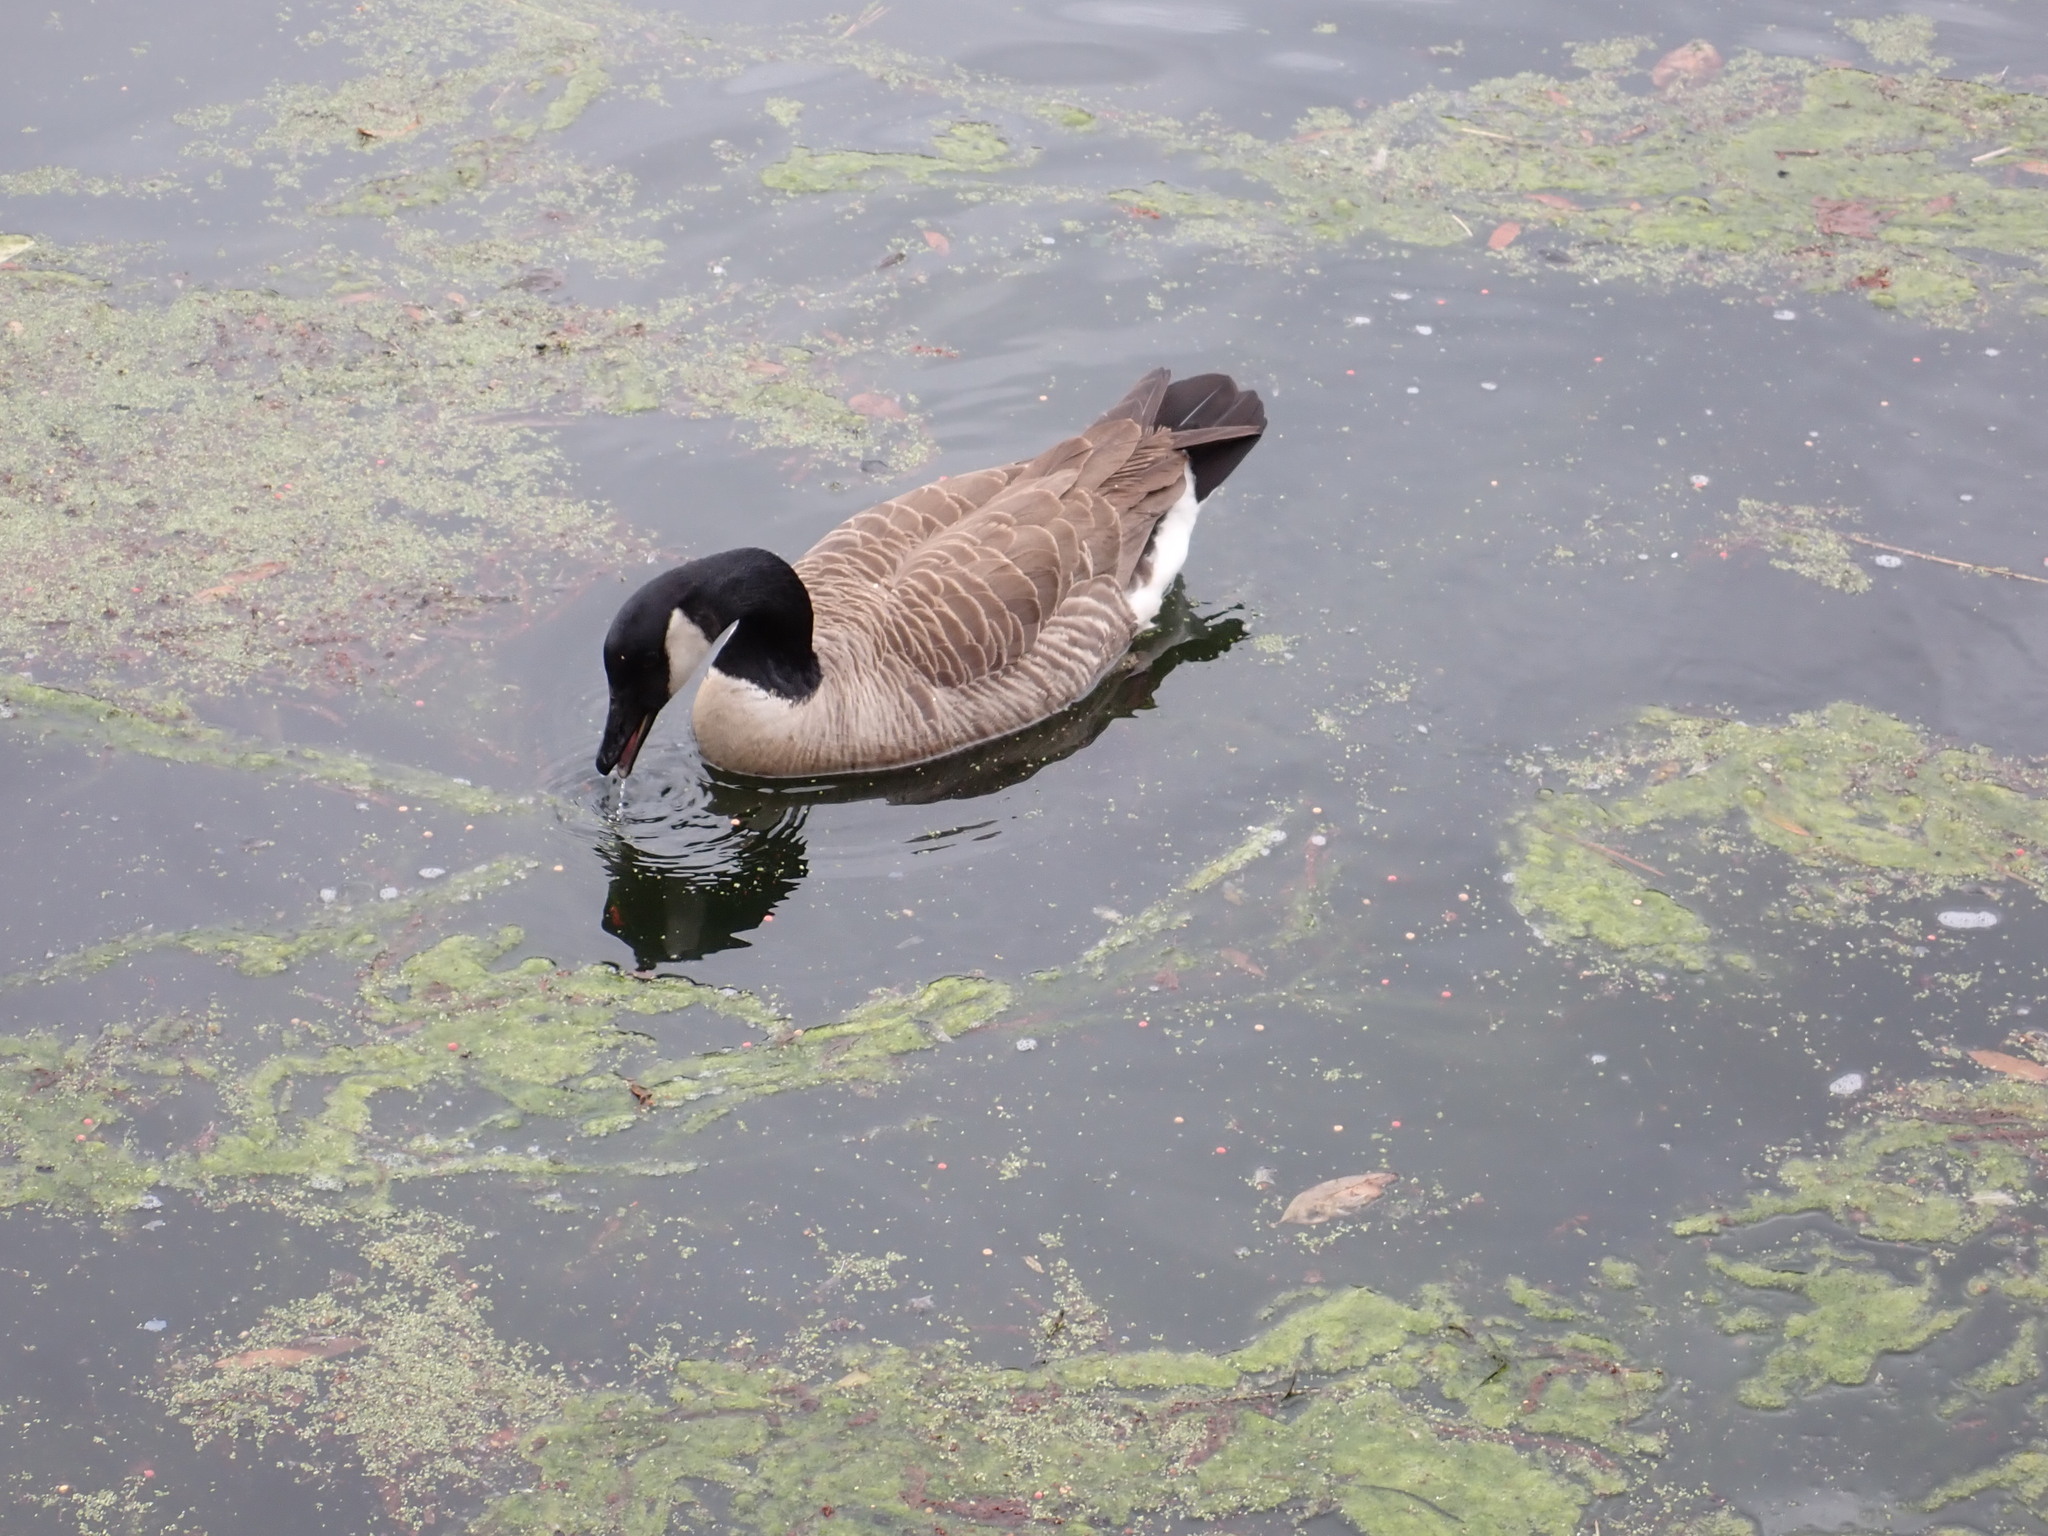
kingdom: Animalia
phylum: Chordata
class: Aves
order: Anseriformes
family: Anatidae
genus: Branta
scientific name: Branta canadensis
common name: Canada goose
